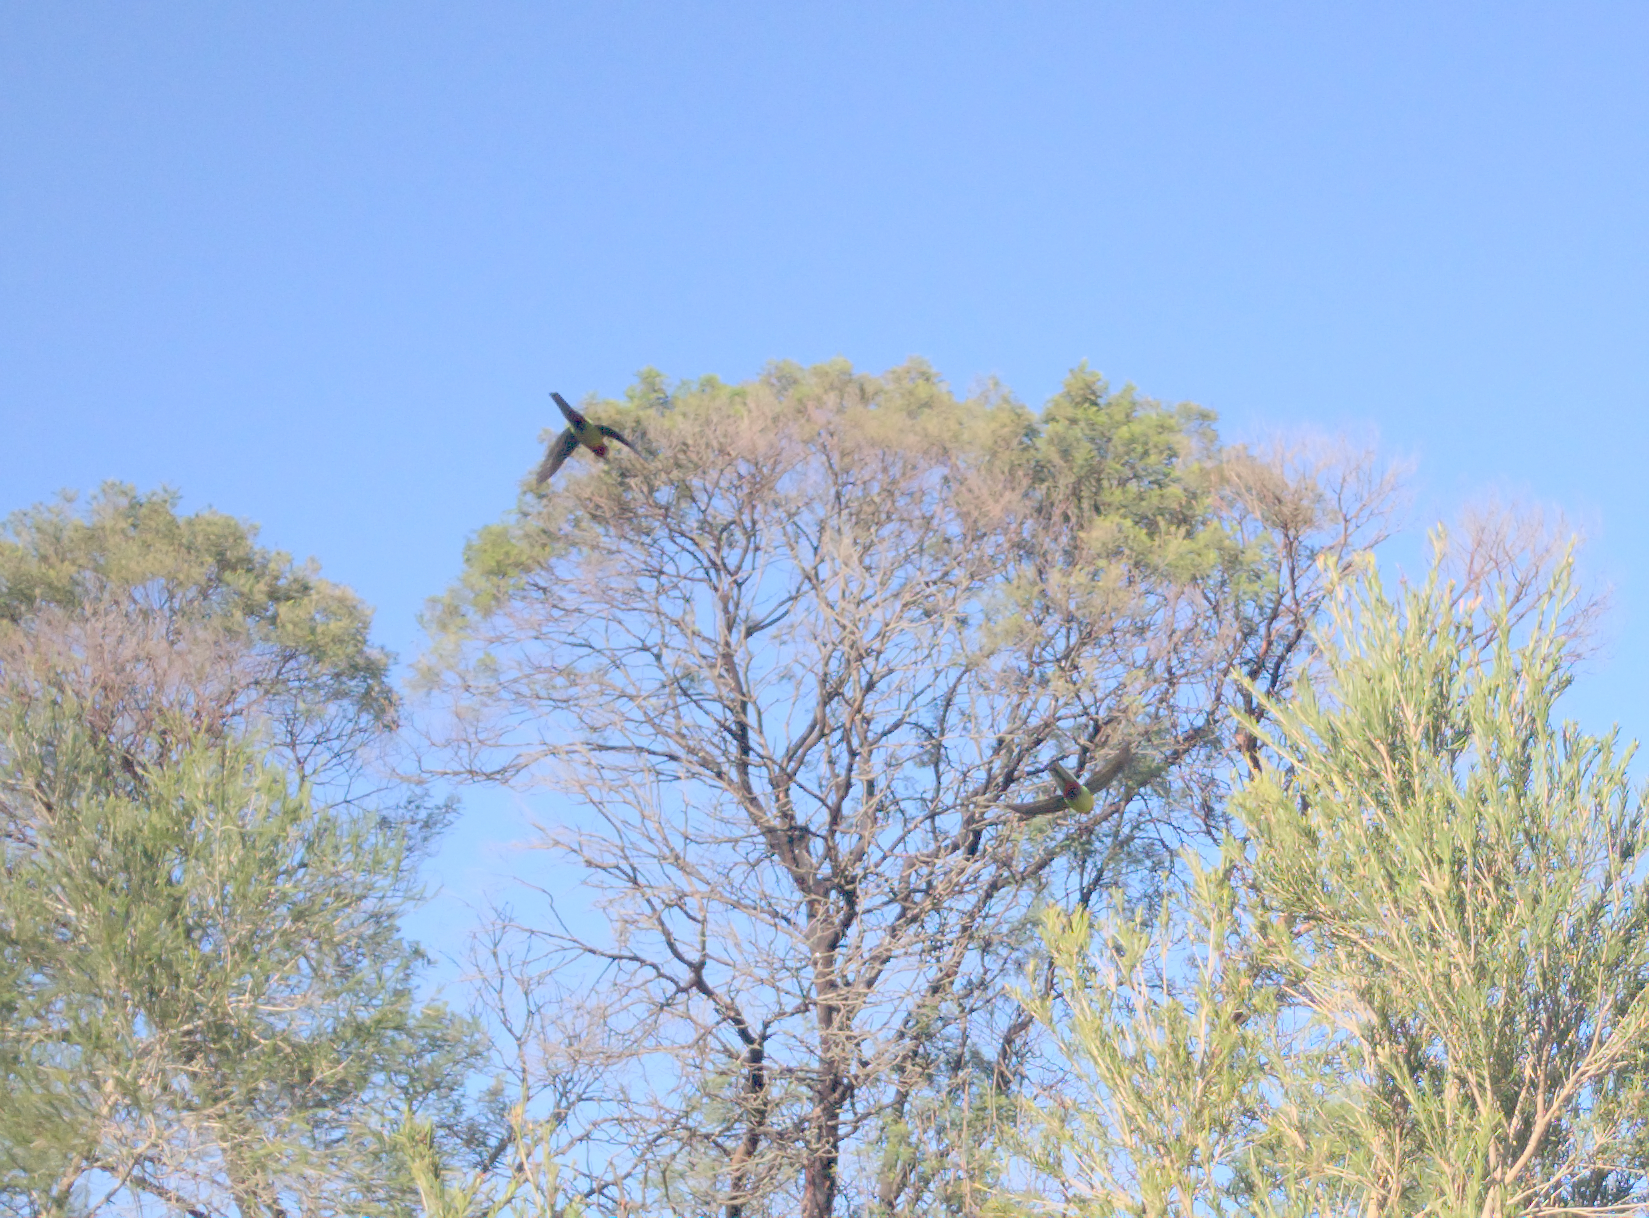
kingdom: Animalia
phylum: Chordata
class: Aves
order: Psittaciformes
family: Psittacidae
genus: Platycercus
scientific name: Platycercus eximius
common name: Eastern rosella
